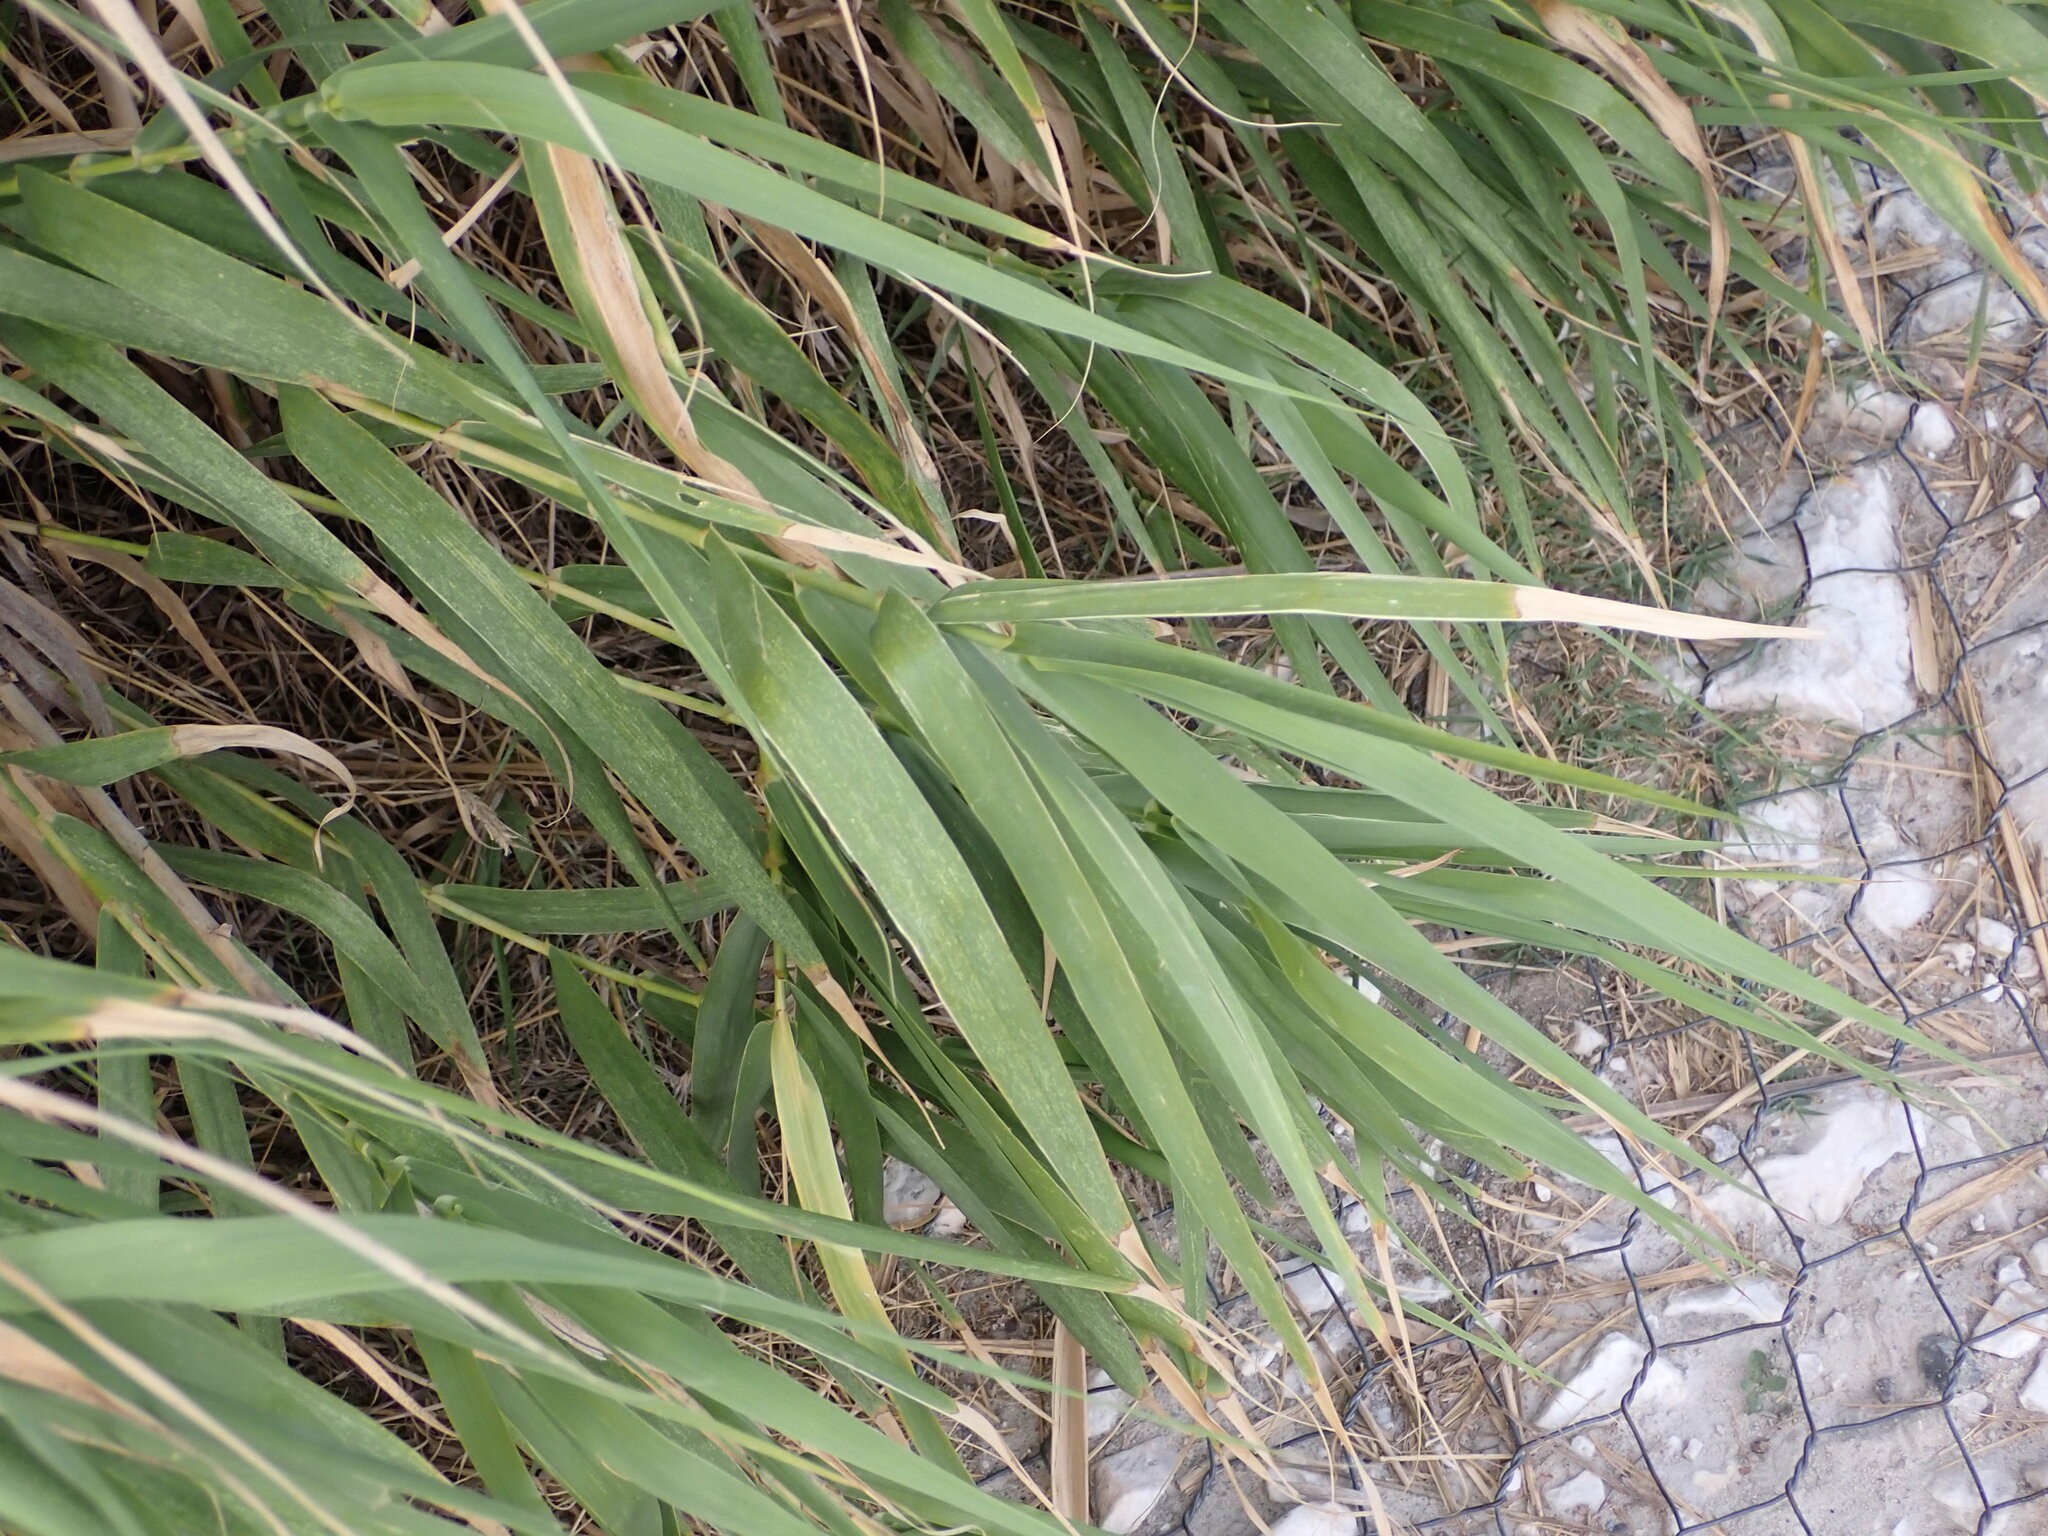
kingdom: Plantae
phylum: Tracheophyta
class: Liliopsida
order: Poales
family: Poaceae
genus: Arundo
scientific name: Arundo donax
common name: Giant reed
